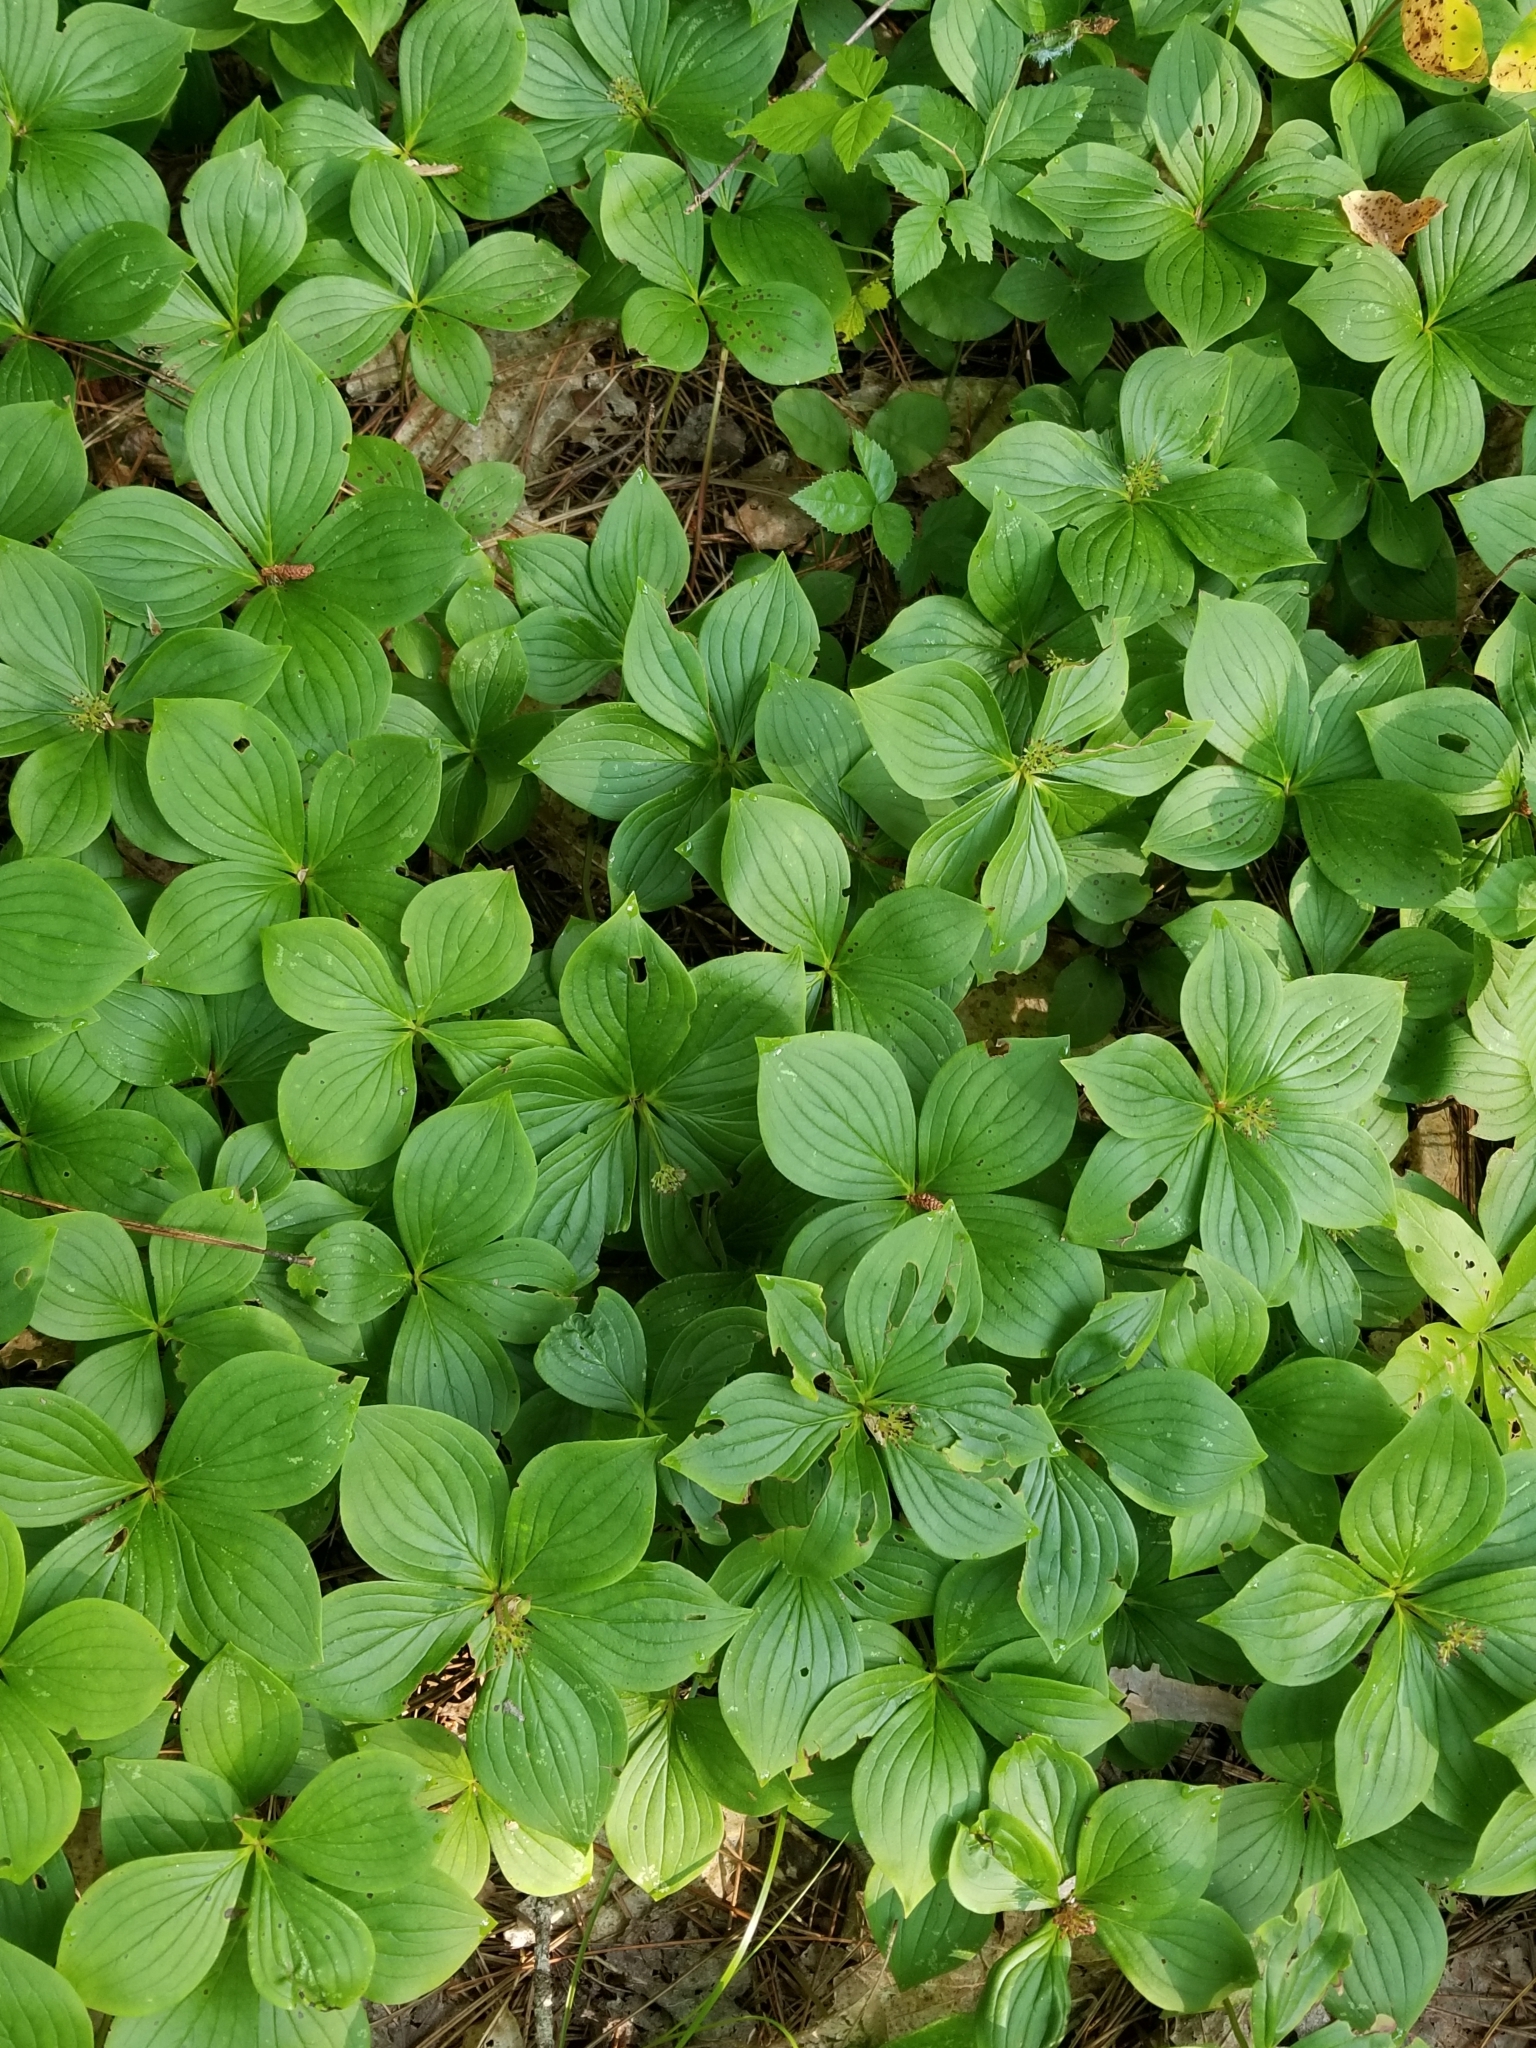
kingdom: Plantae
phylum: Tracheophyta
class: Magnoliopsida
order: Cornales
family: Cornaceae
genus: Cornus
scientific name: Cornus canadensis
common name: Creeping dogwood
